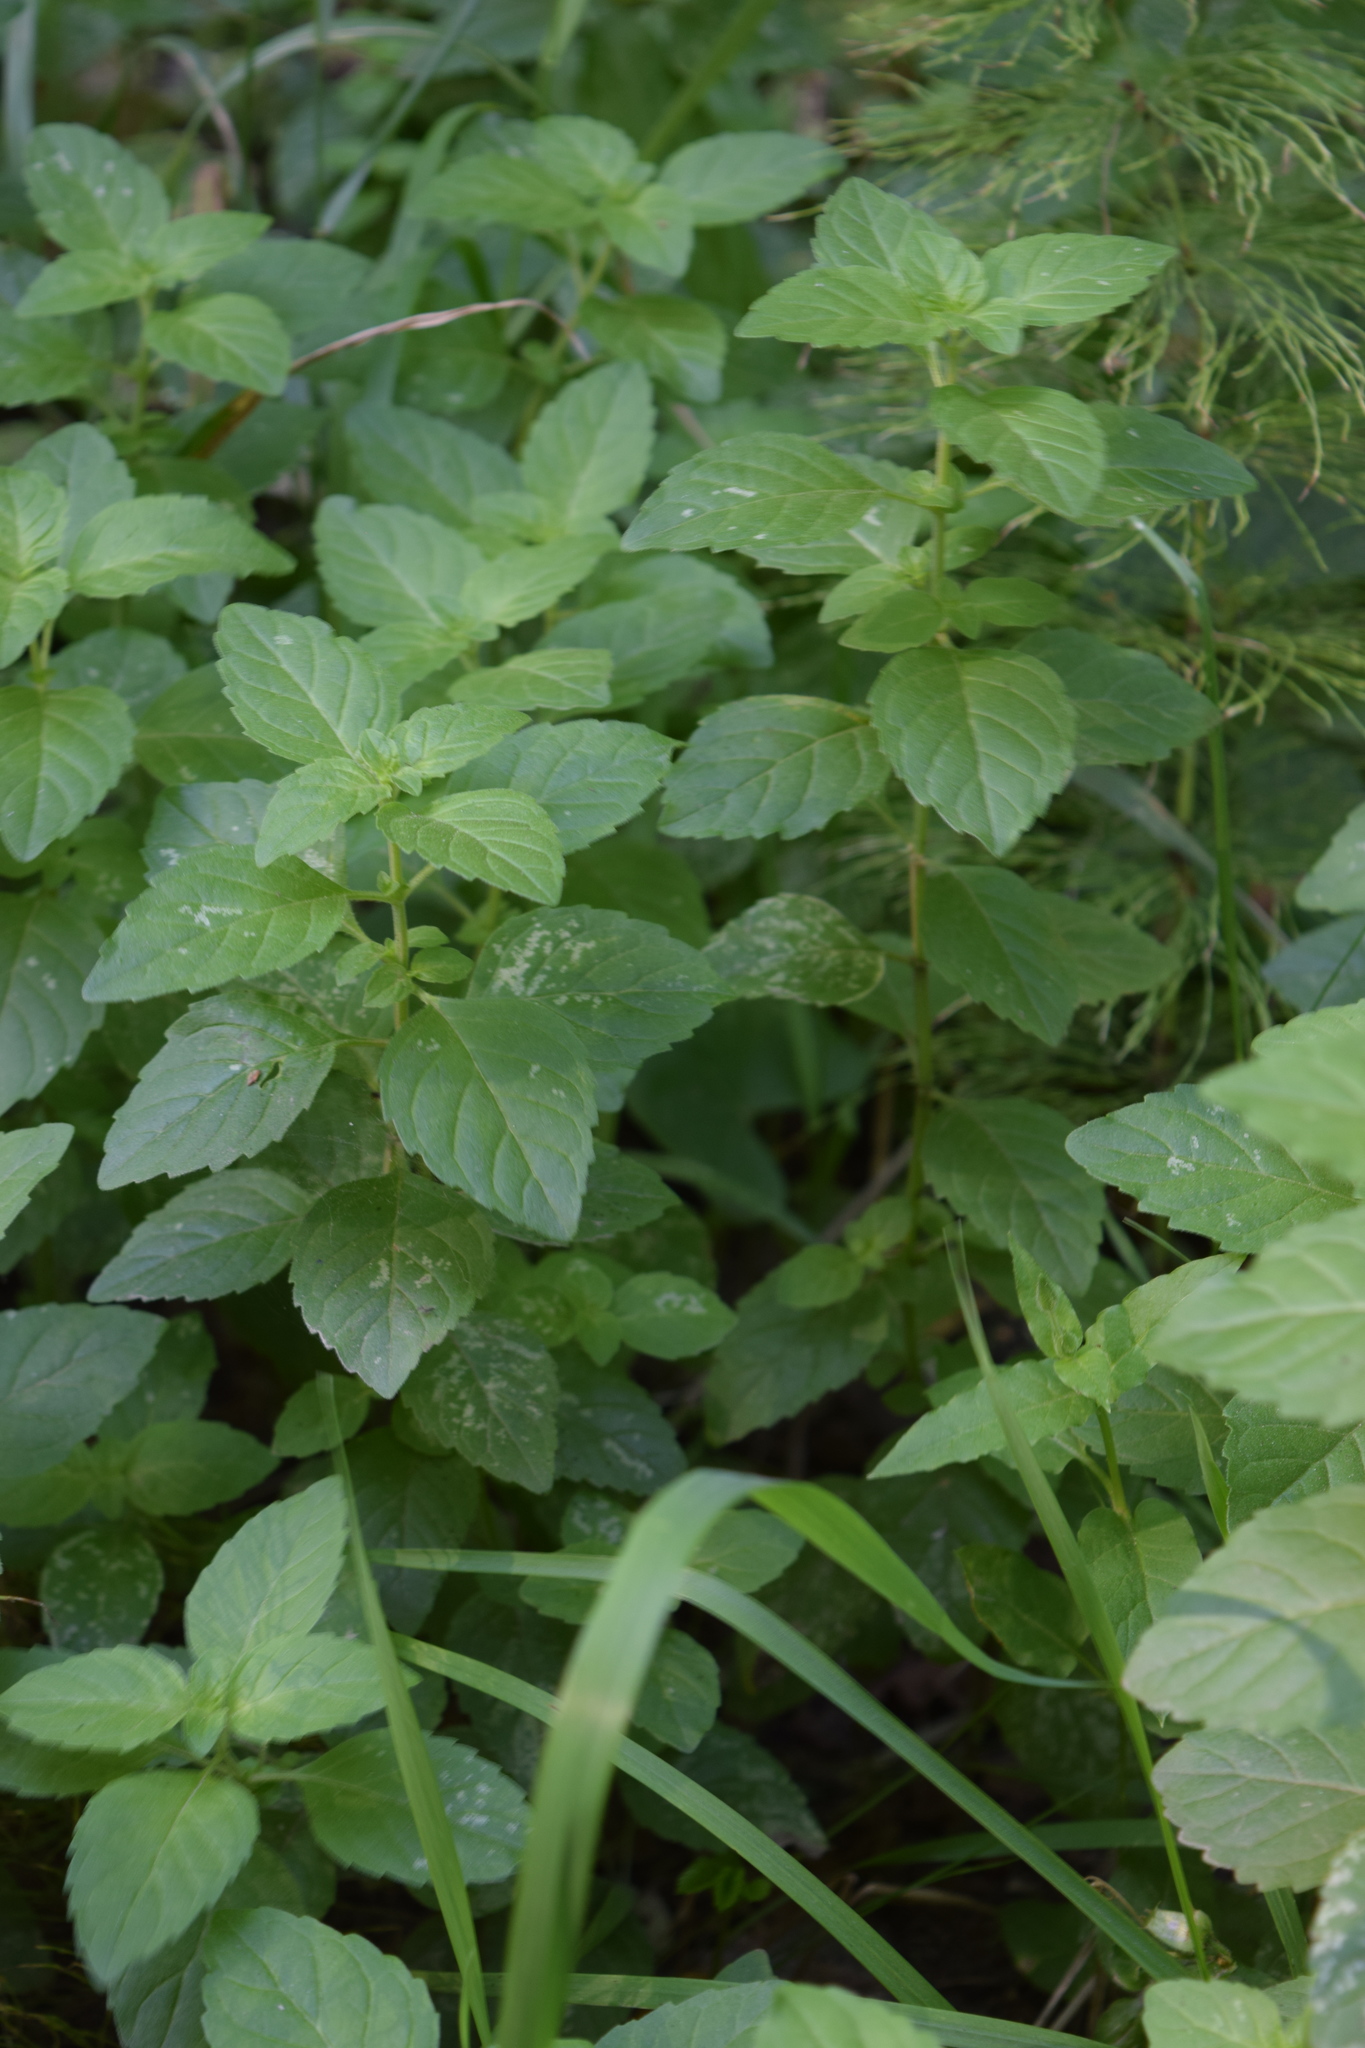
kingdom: Plantae
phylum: Tracheophyta
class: Magnoliopsida
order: Lamiales
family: Lamiaceae
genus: Mentha
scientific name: Mentha arvensis
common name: Corn mint
